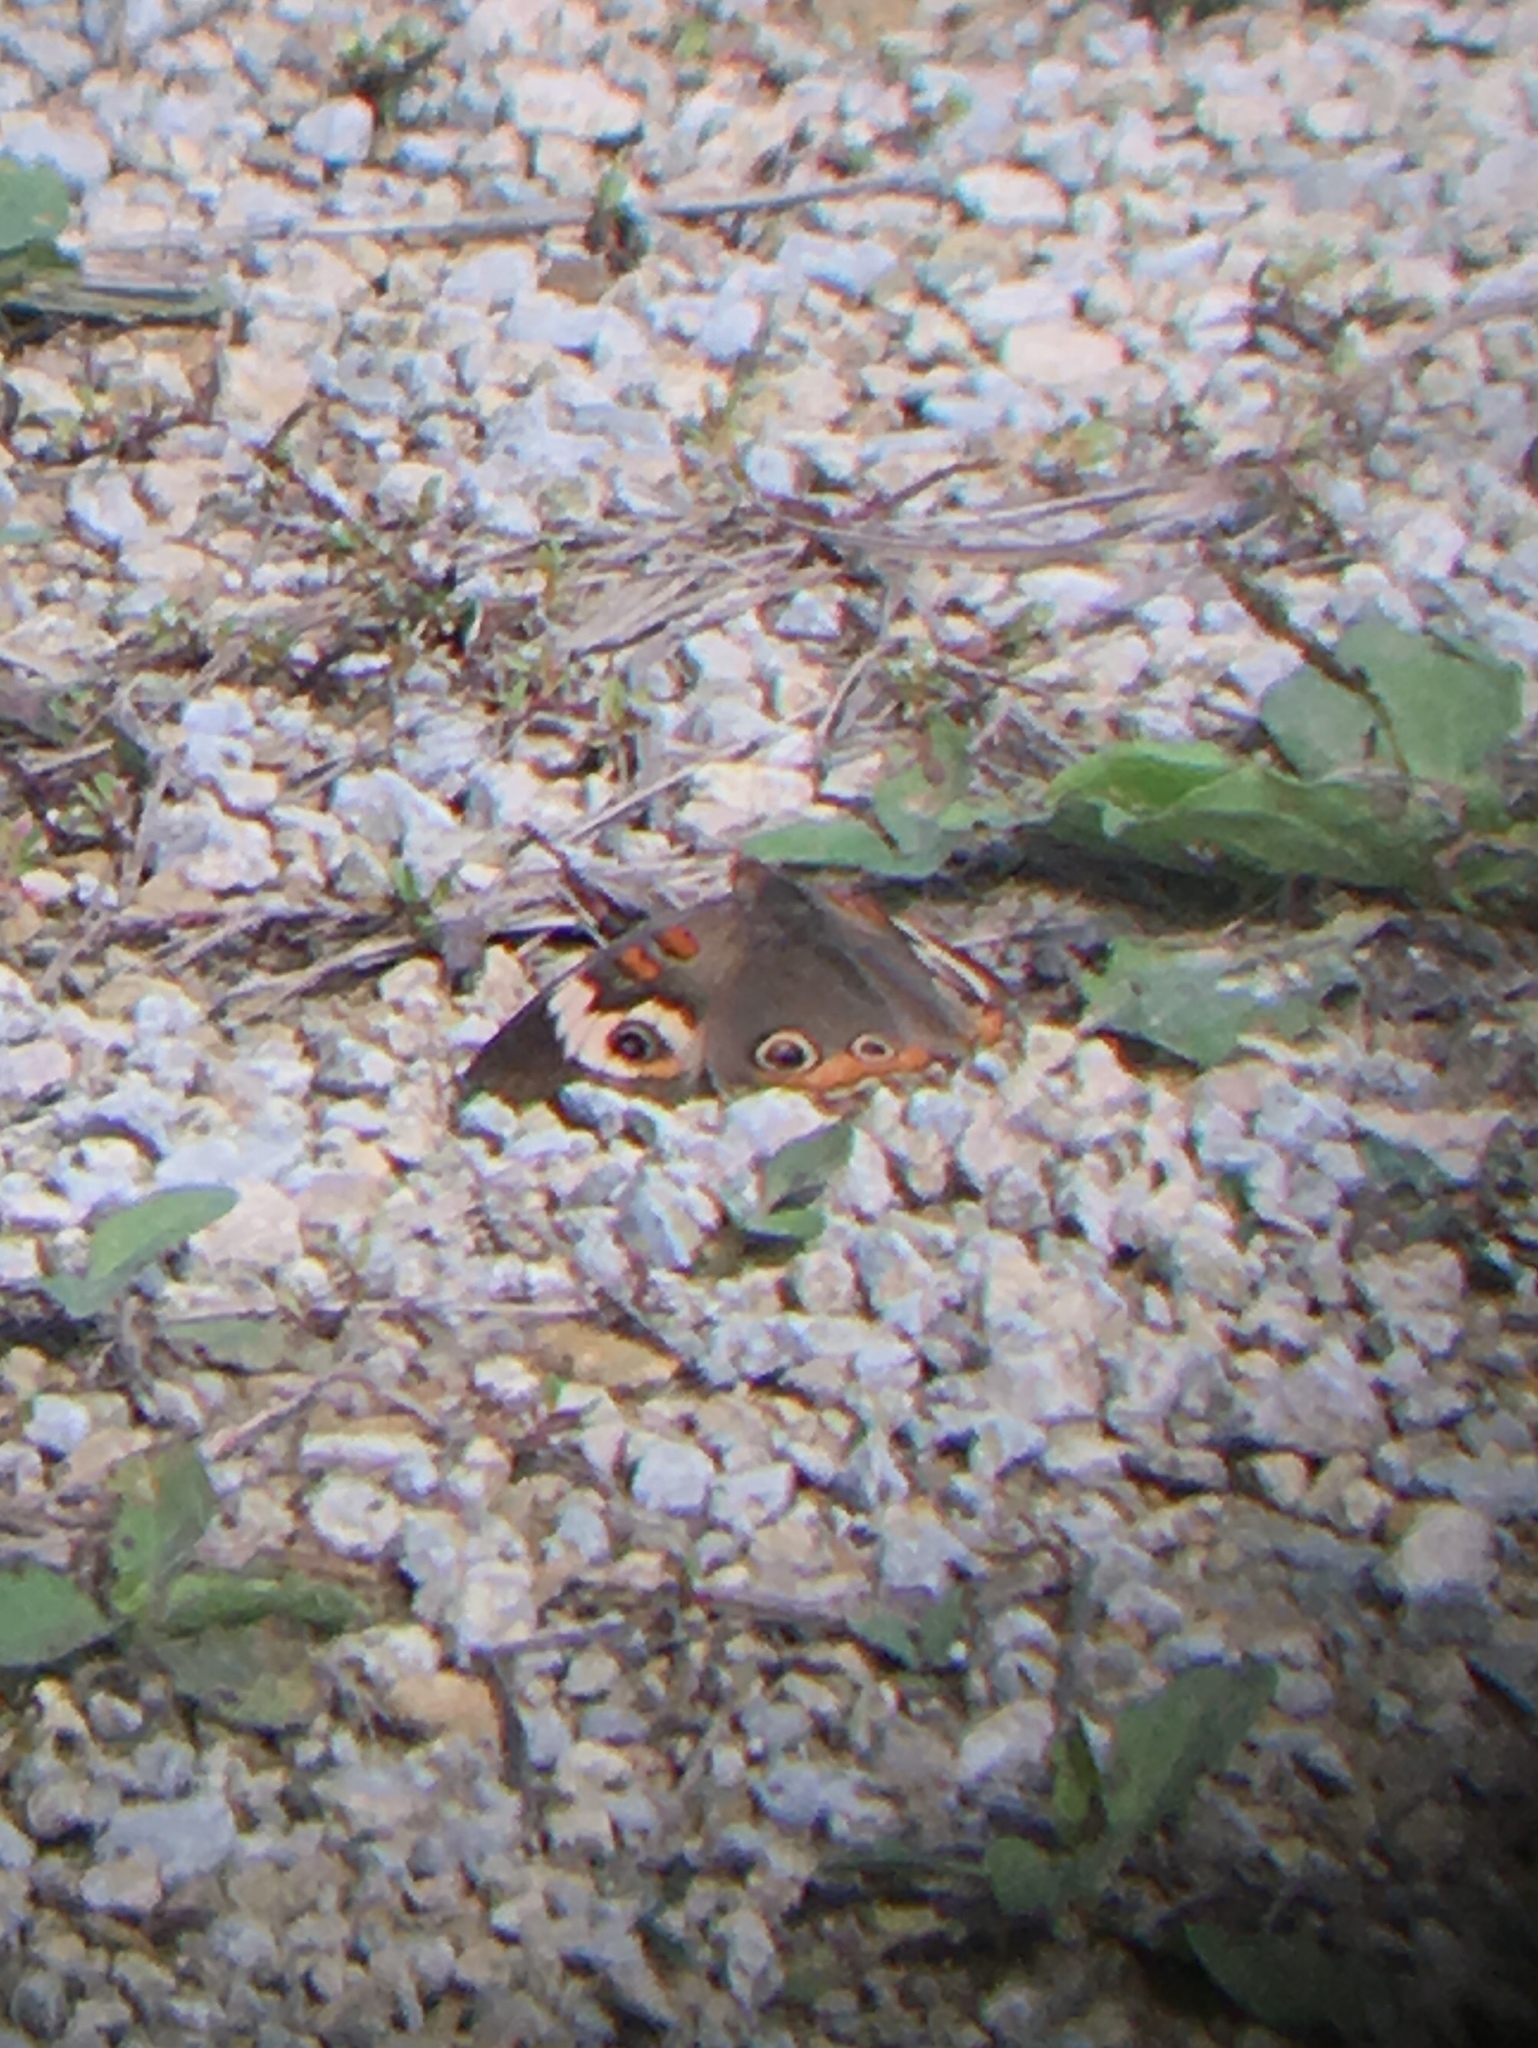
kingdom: Animalia
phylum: Arthropoda
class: Insecta
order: Lepidoptera
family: Nymphalidae
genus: Junonia
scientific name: Junonia coenia
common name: Common buckeye
